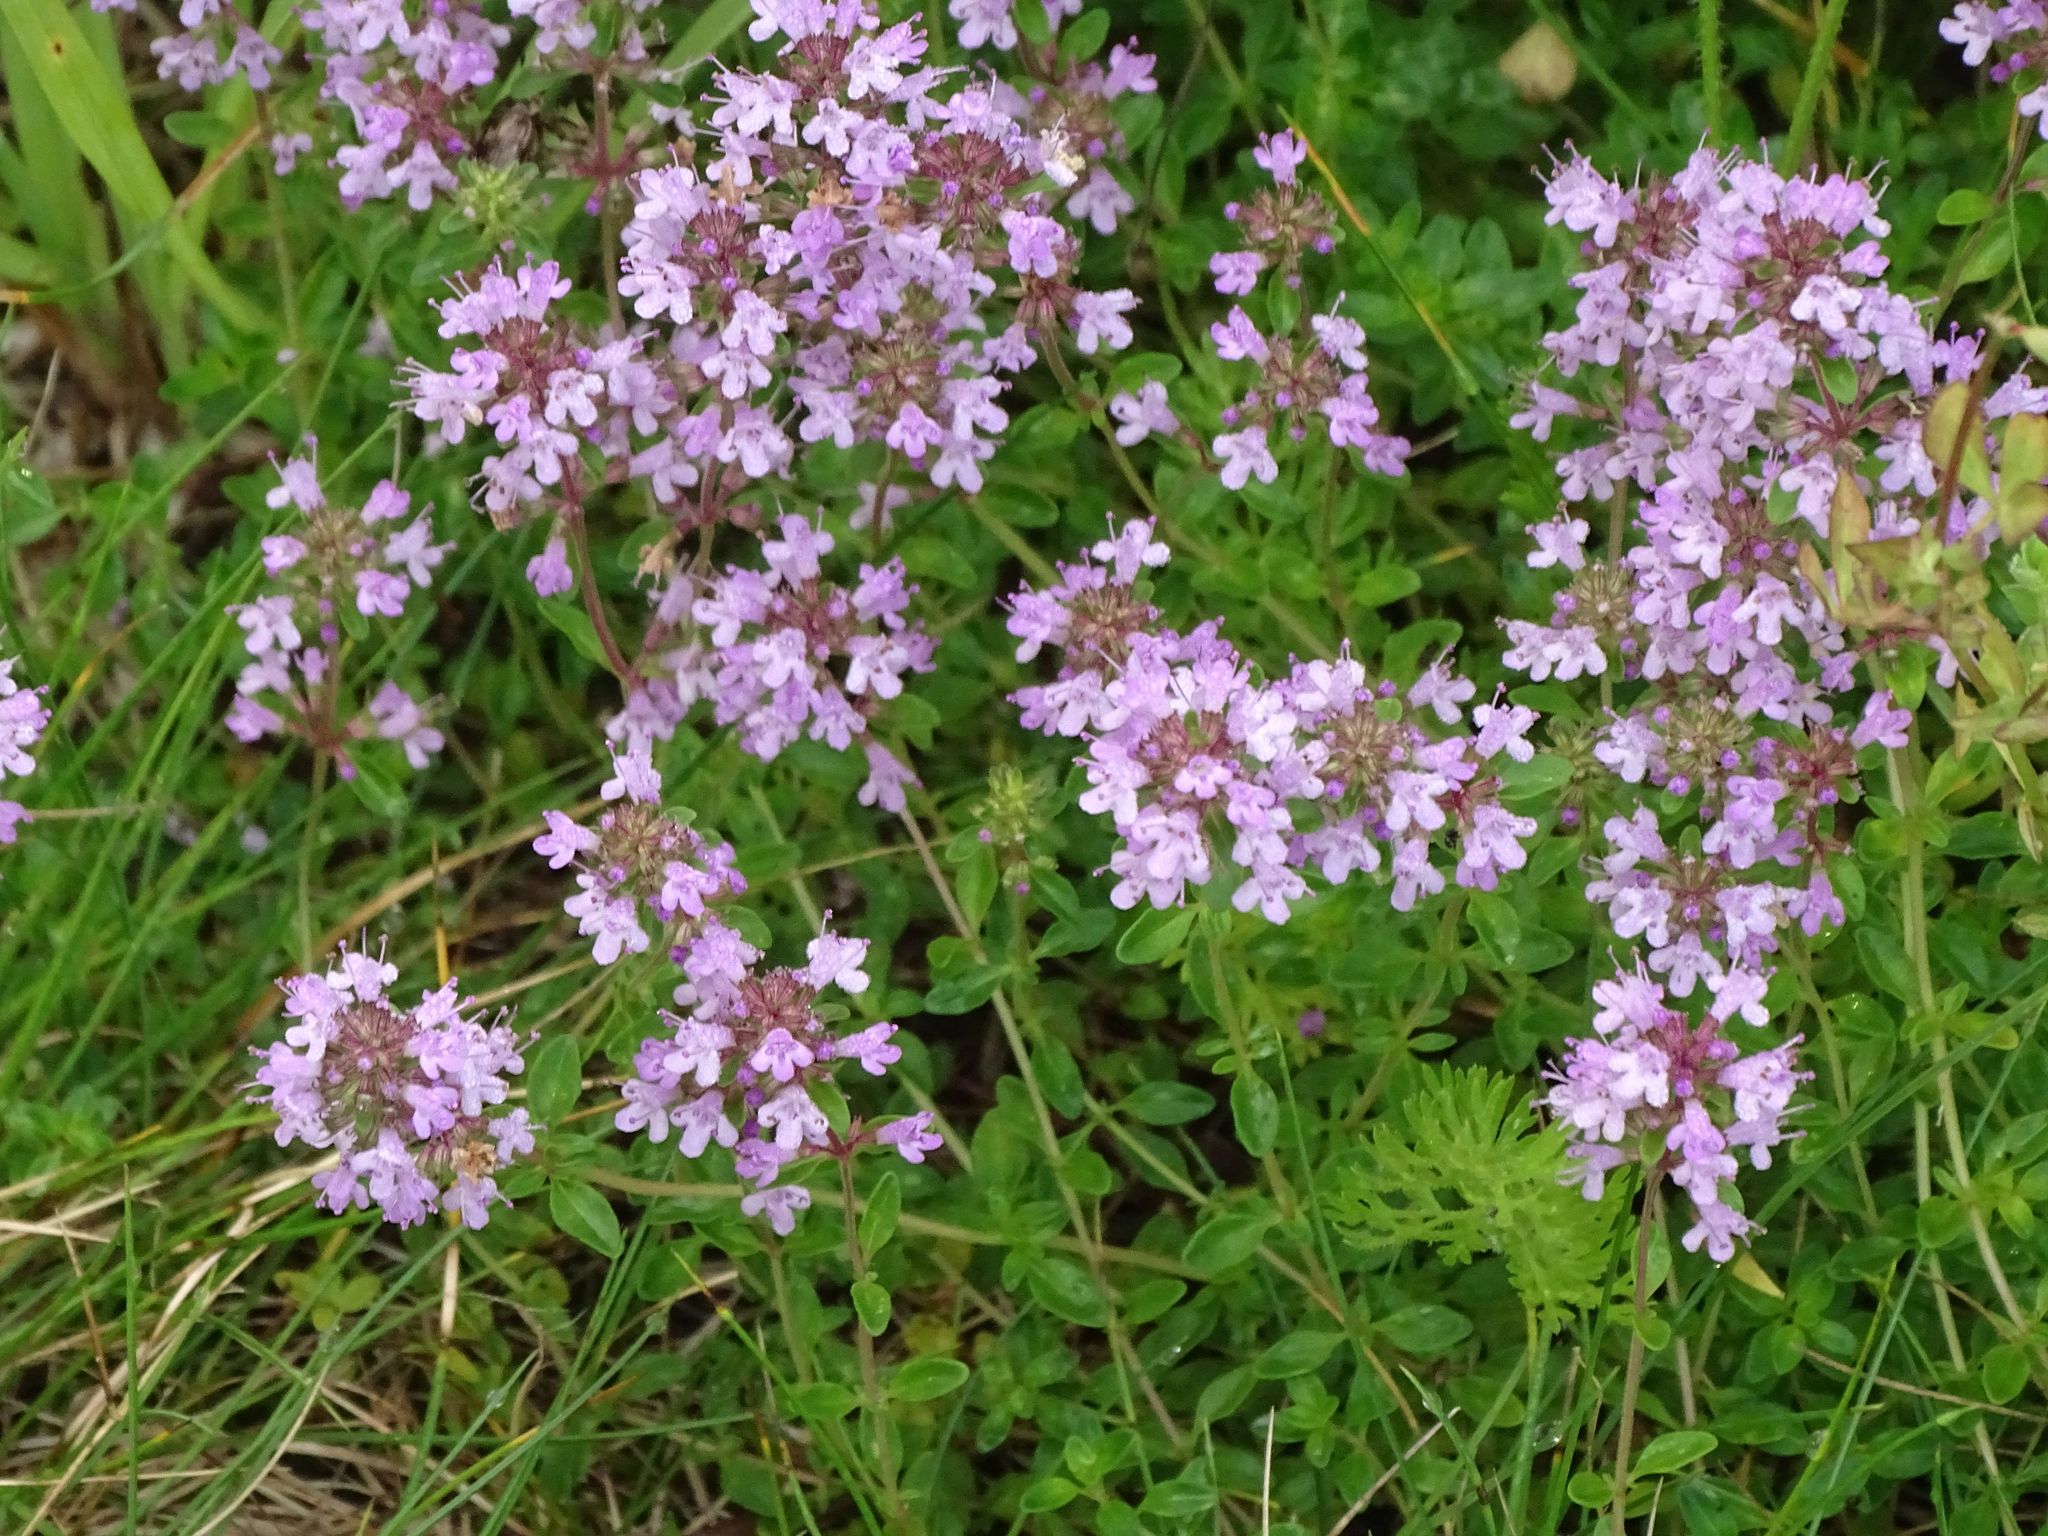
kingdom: Plantae
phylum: Tracheophyta
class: Magnoliopsida
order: Lamiales
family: Lamiaceae
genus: Thymus
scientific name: Thymus pulegioides
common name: Large thyme
